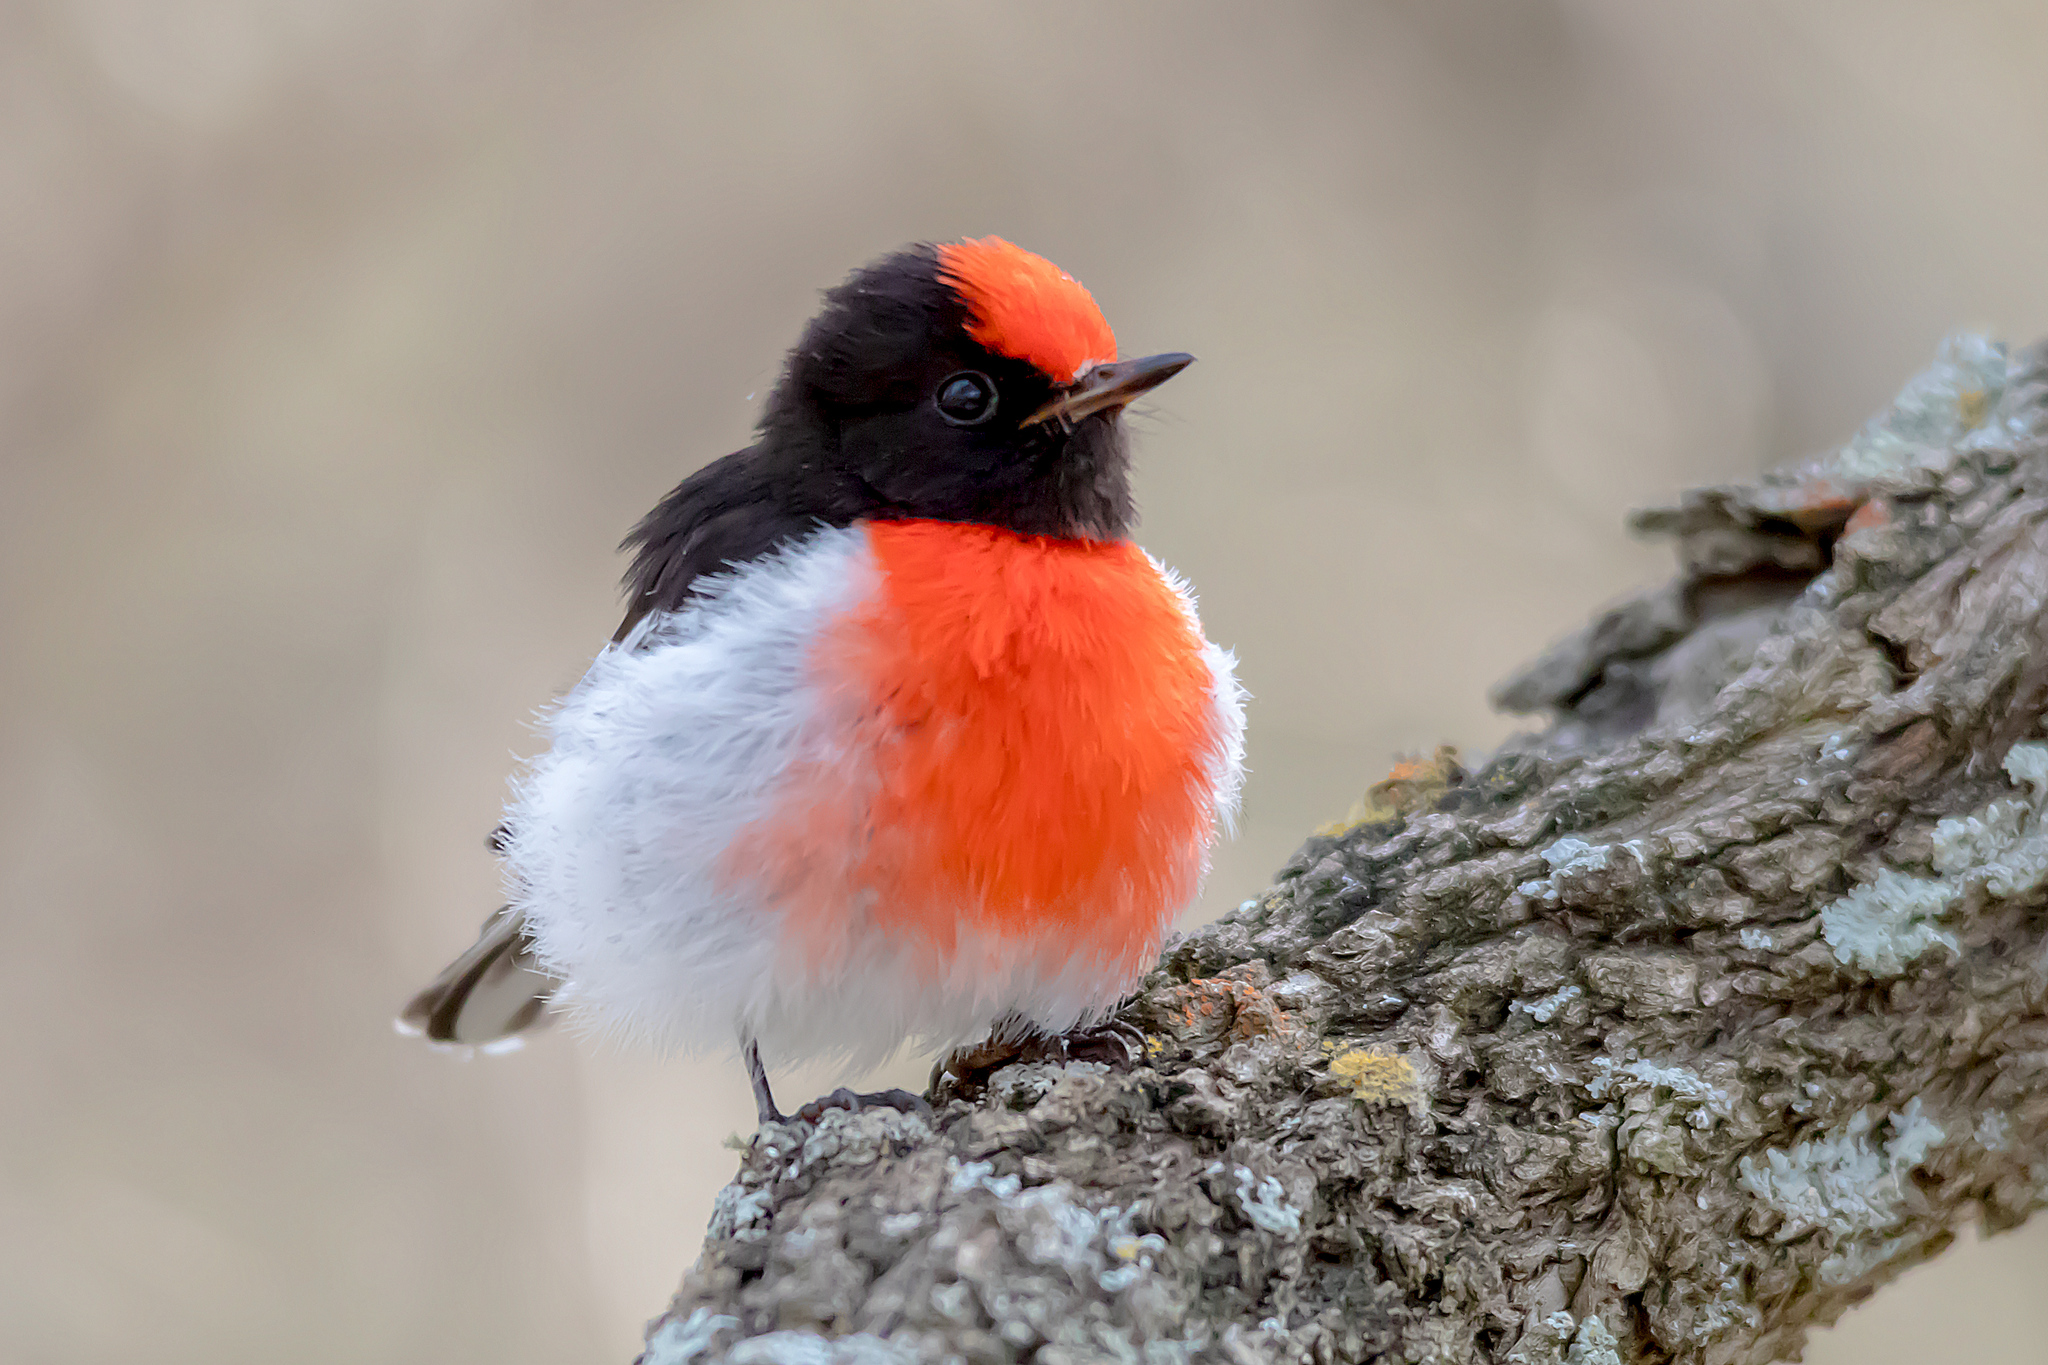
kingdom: Animalia
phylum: Chordata
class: Aves
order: Passeriformes
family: Petroicidae
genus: Petroica
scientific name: Petroica goodenovii
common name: Red-capped robin
